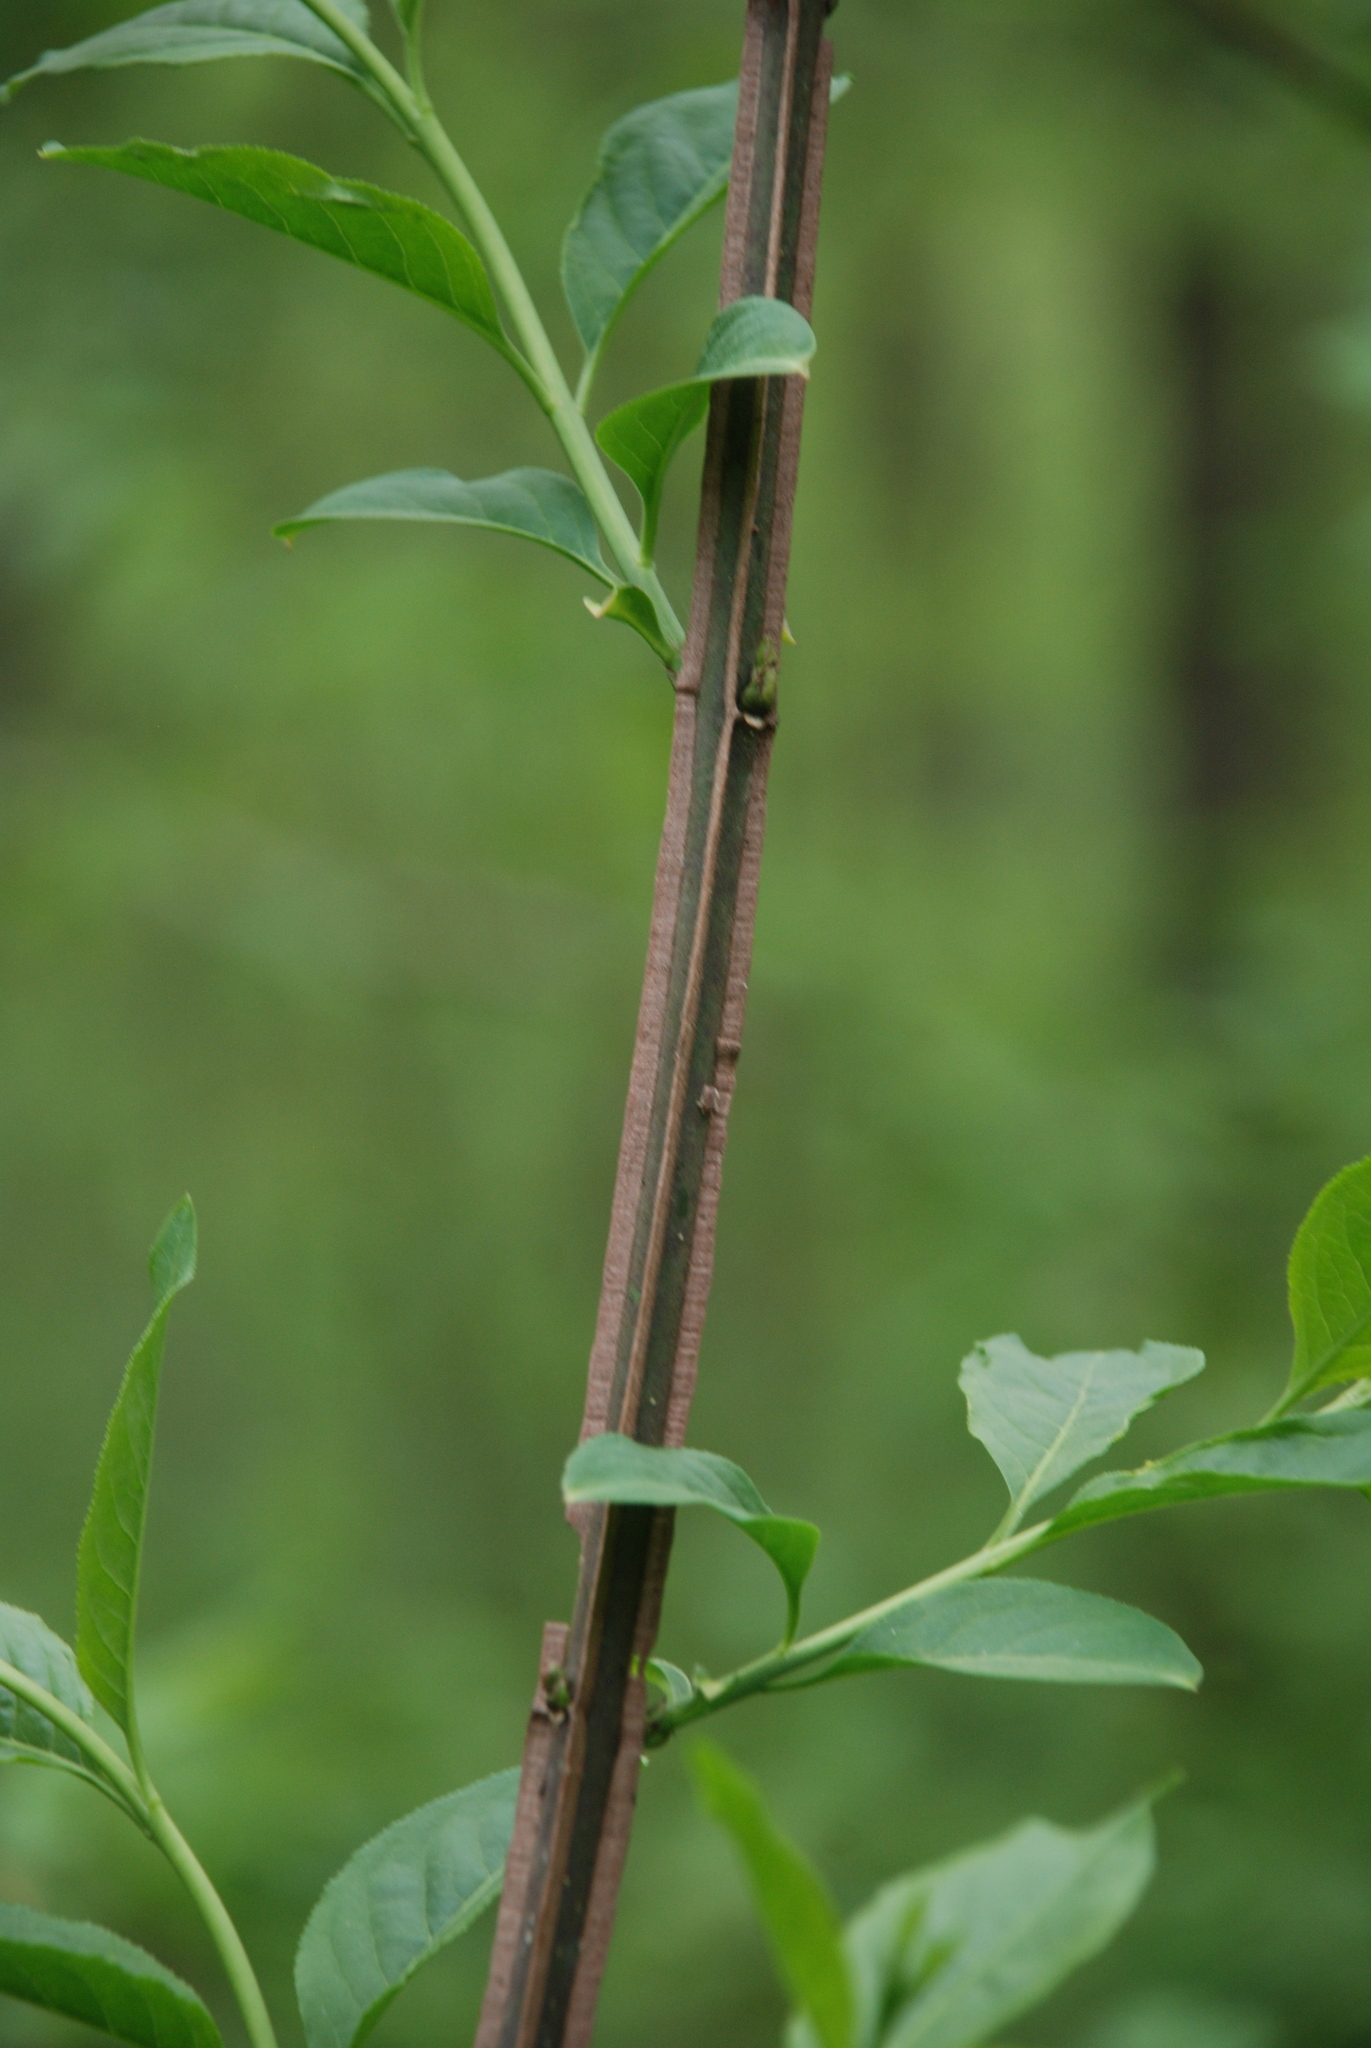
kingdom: Plantae
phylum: Tracheophyta
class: Magnoliopsida
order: Celastrales
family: Celastraceae
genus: Euonymus
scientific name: Euonymus europaeus
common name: Spindle
